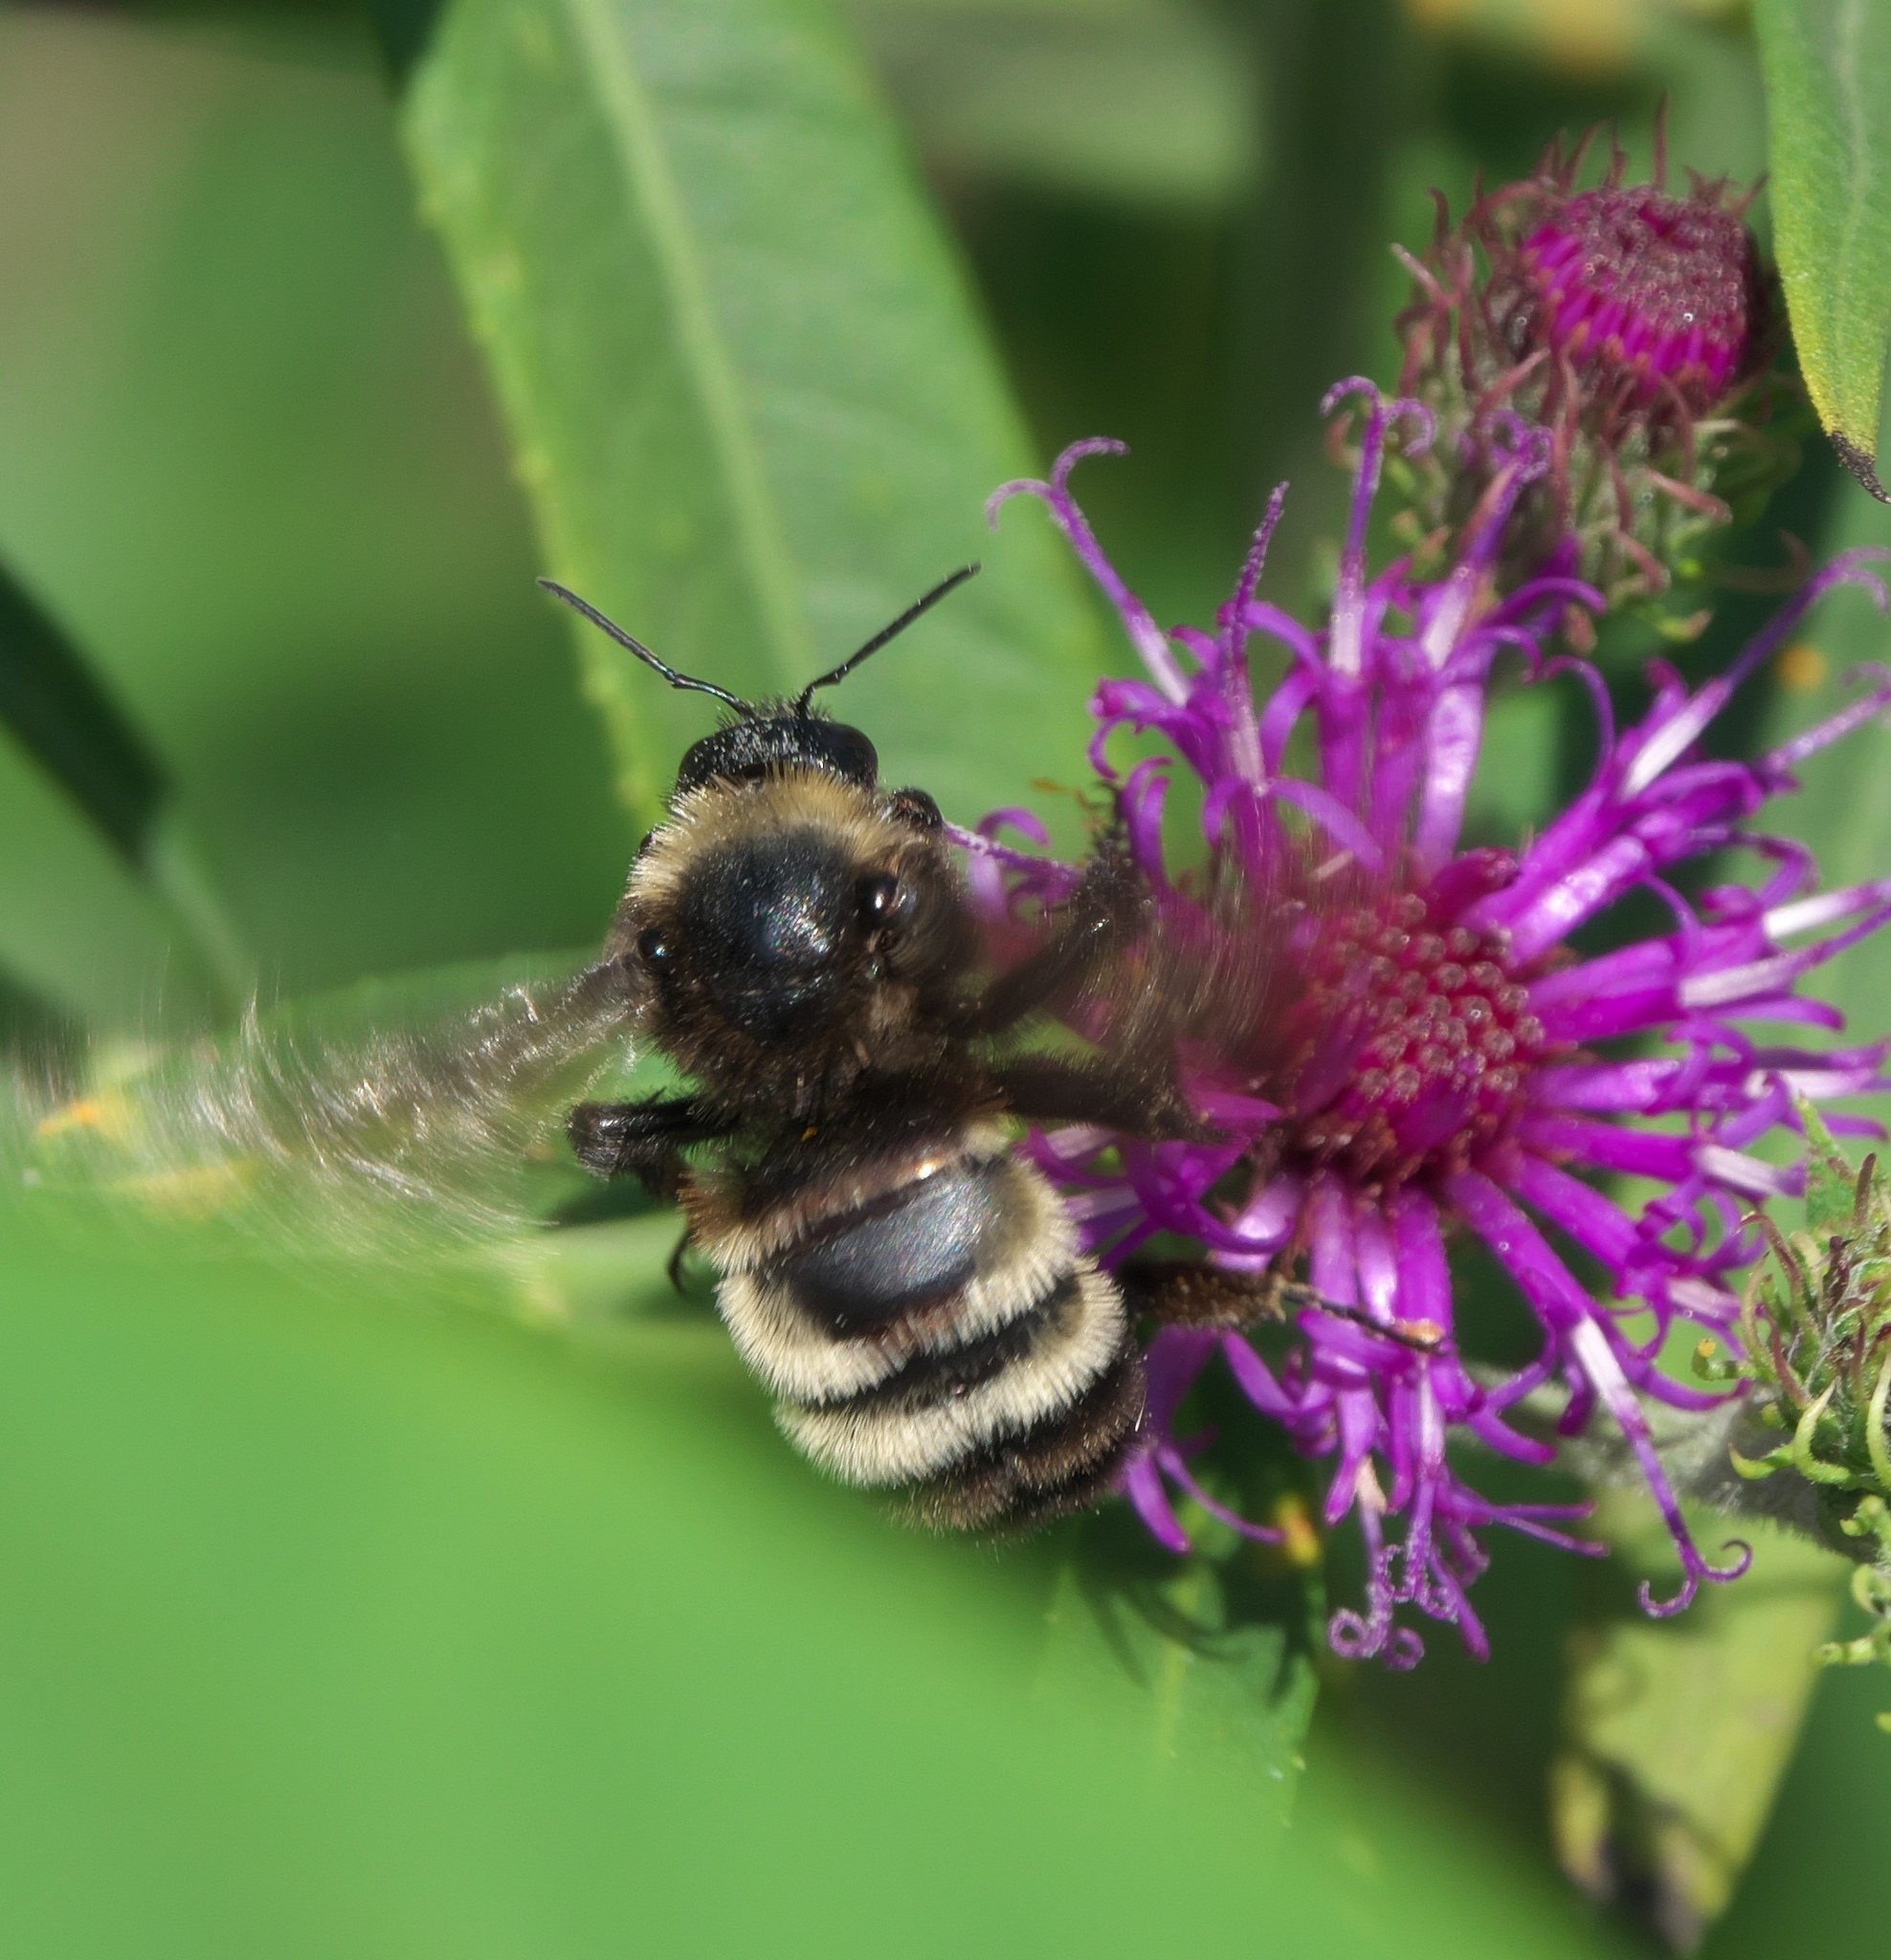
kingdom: Animalia
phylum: Arthropoda
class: Insecta
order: Hymenoptera
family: Apidae
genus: Bombus
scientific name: Bombus pensylvanicus
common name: Bumble bee
